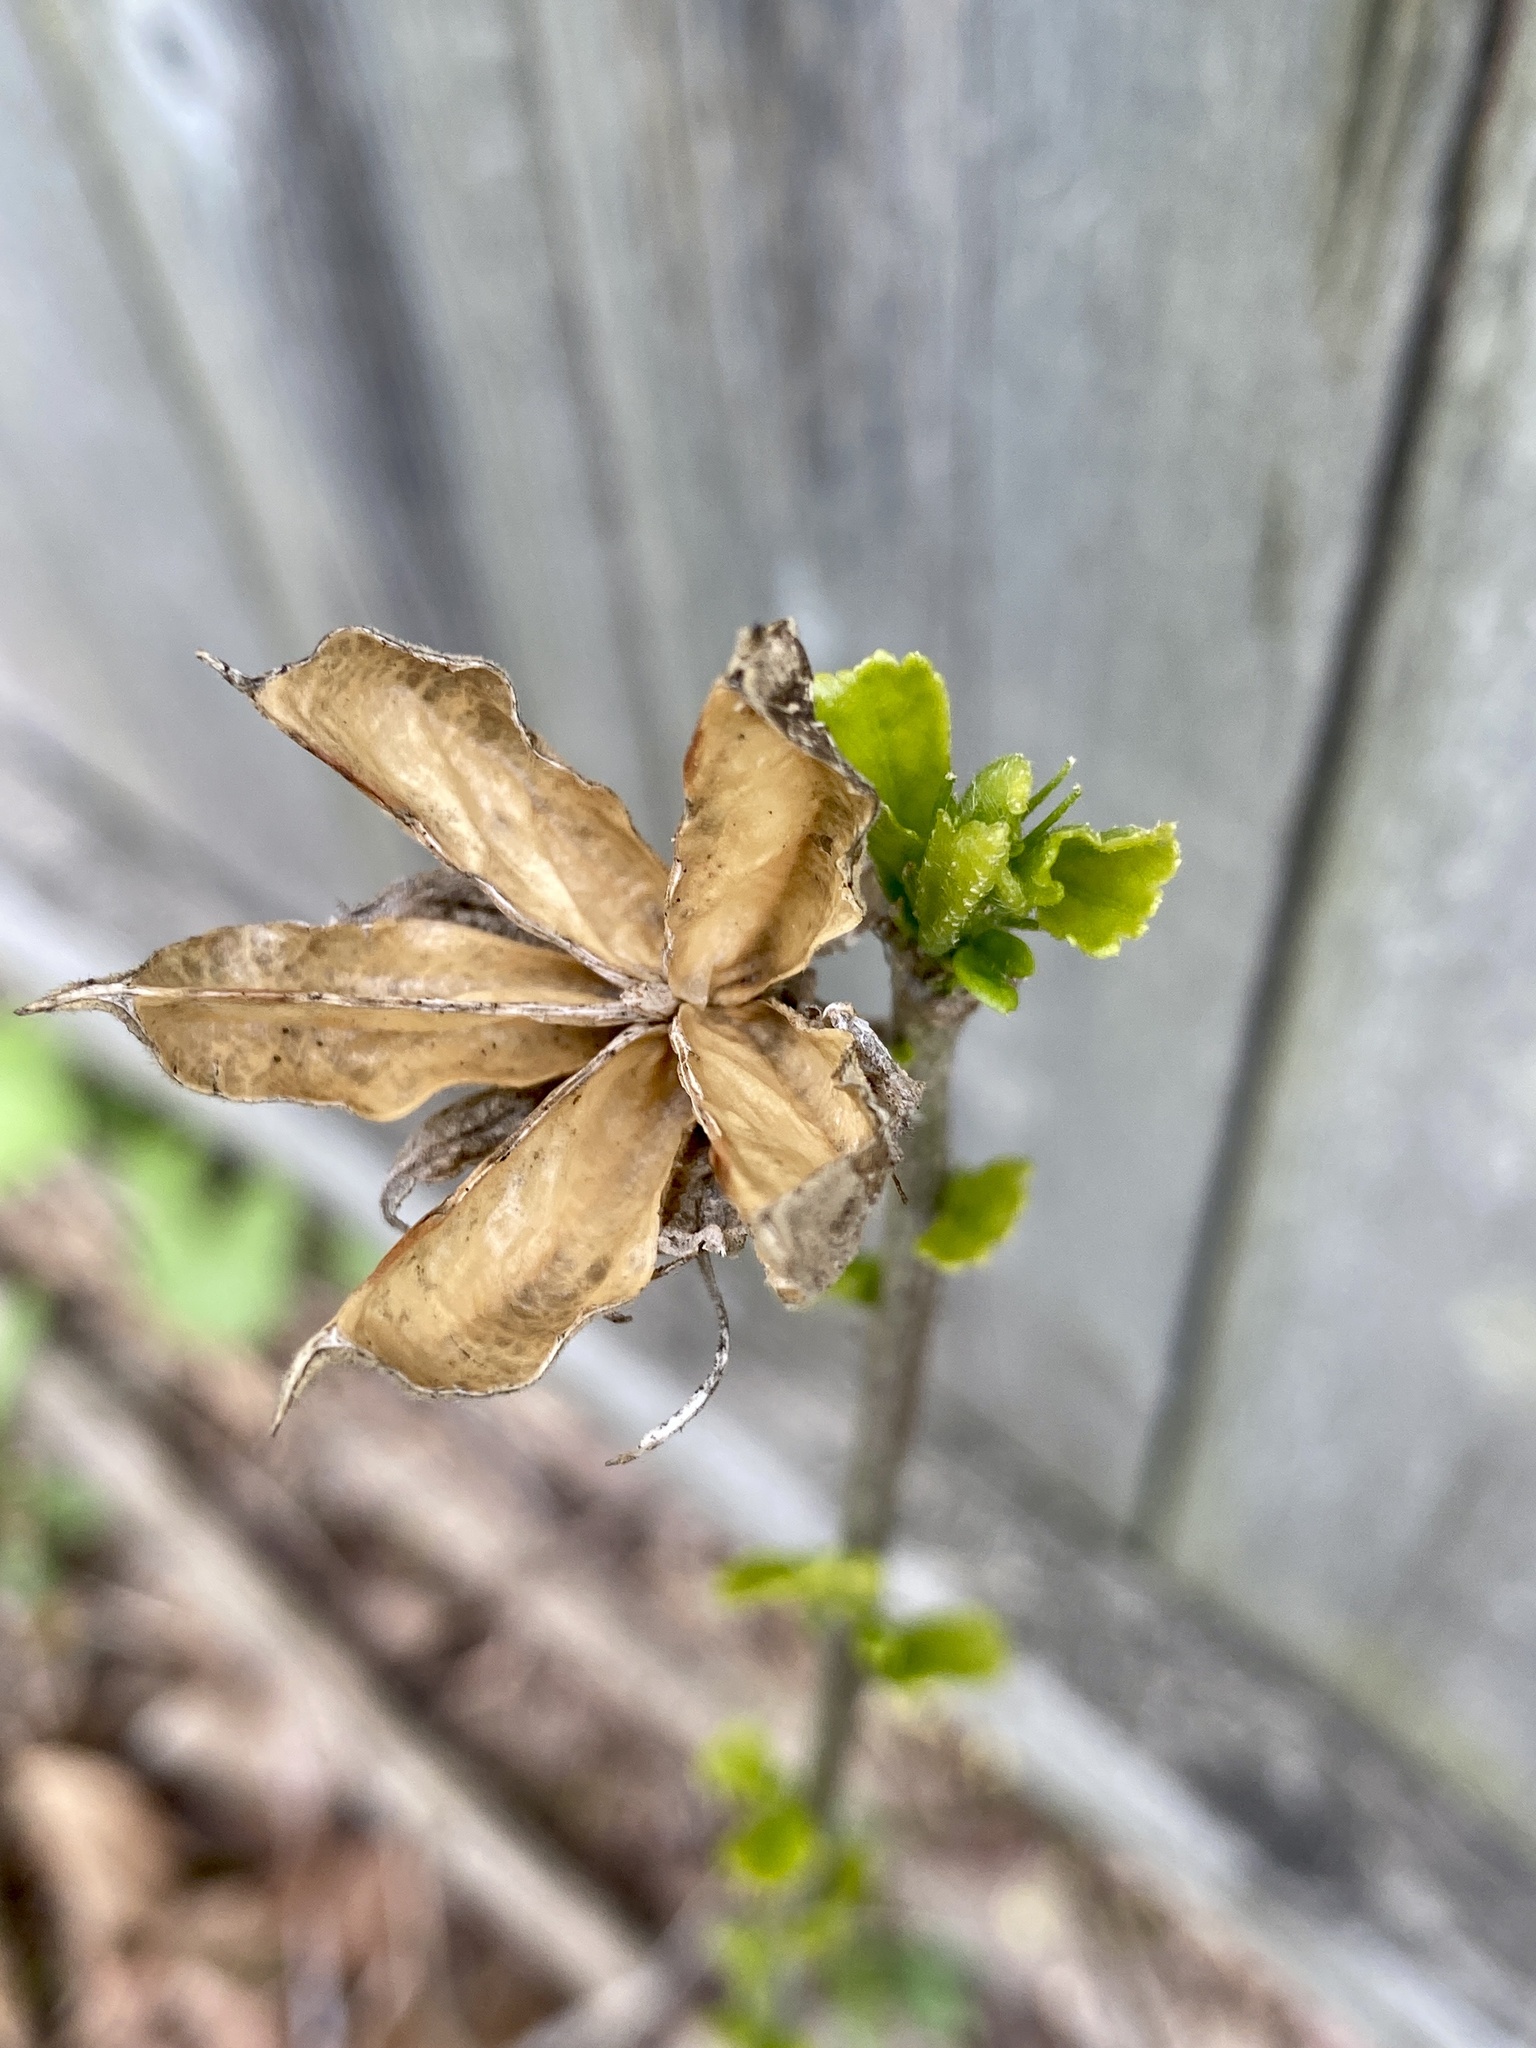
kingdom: Plantae
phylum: Tracheophyta
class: Magnoliopsida
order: Malvales
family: Malvaceae
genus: Hibiscus
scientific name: Hibiscus syriacus
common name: Syrian ketmia
